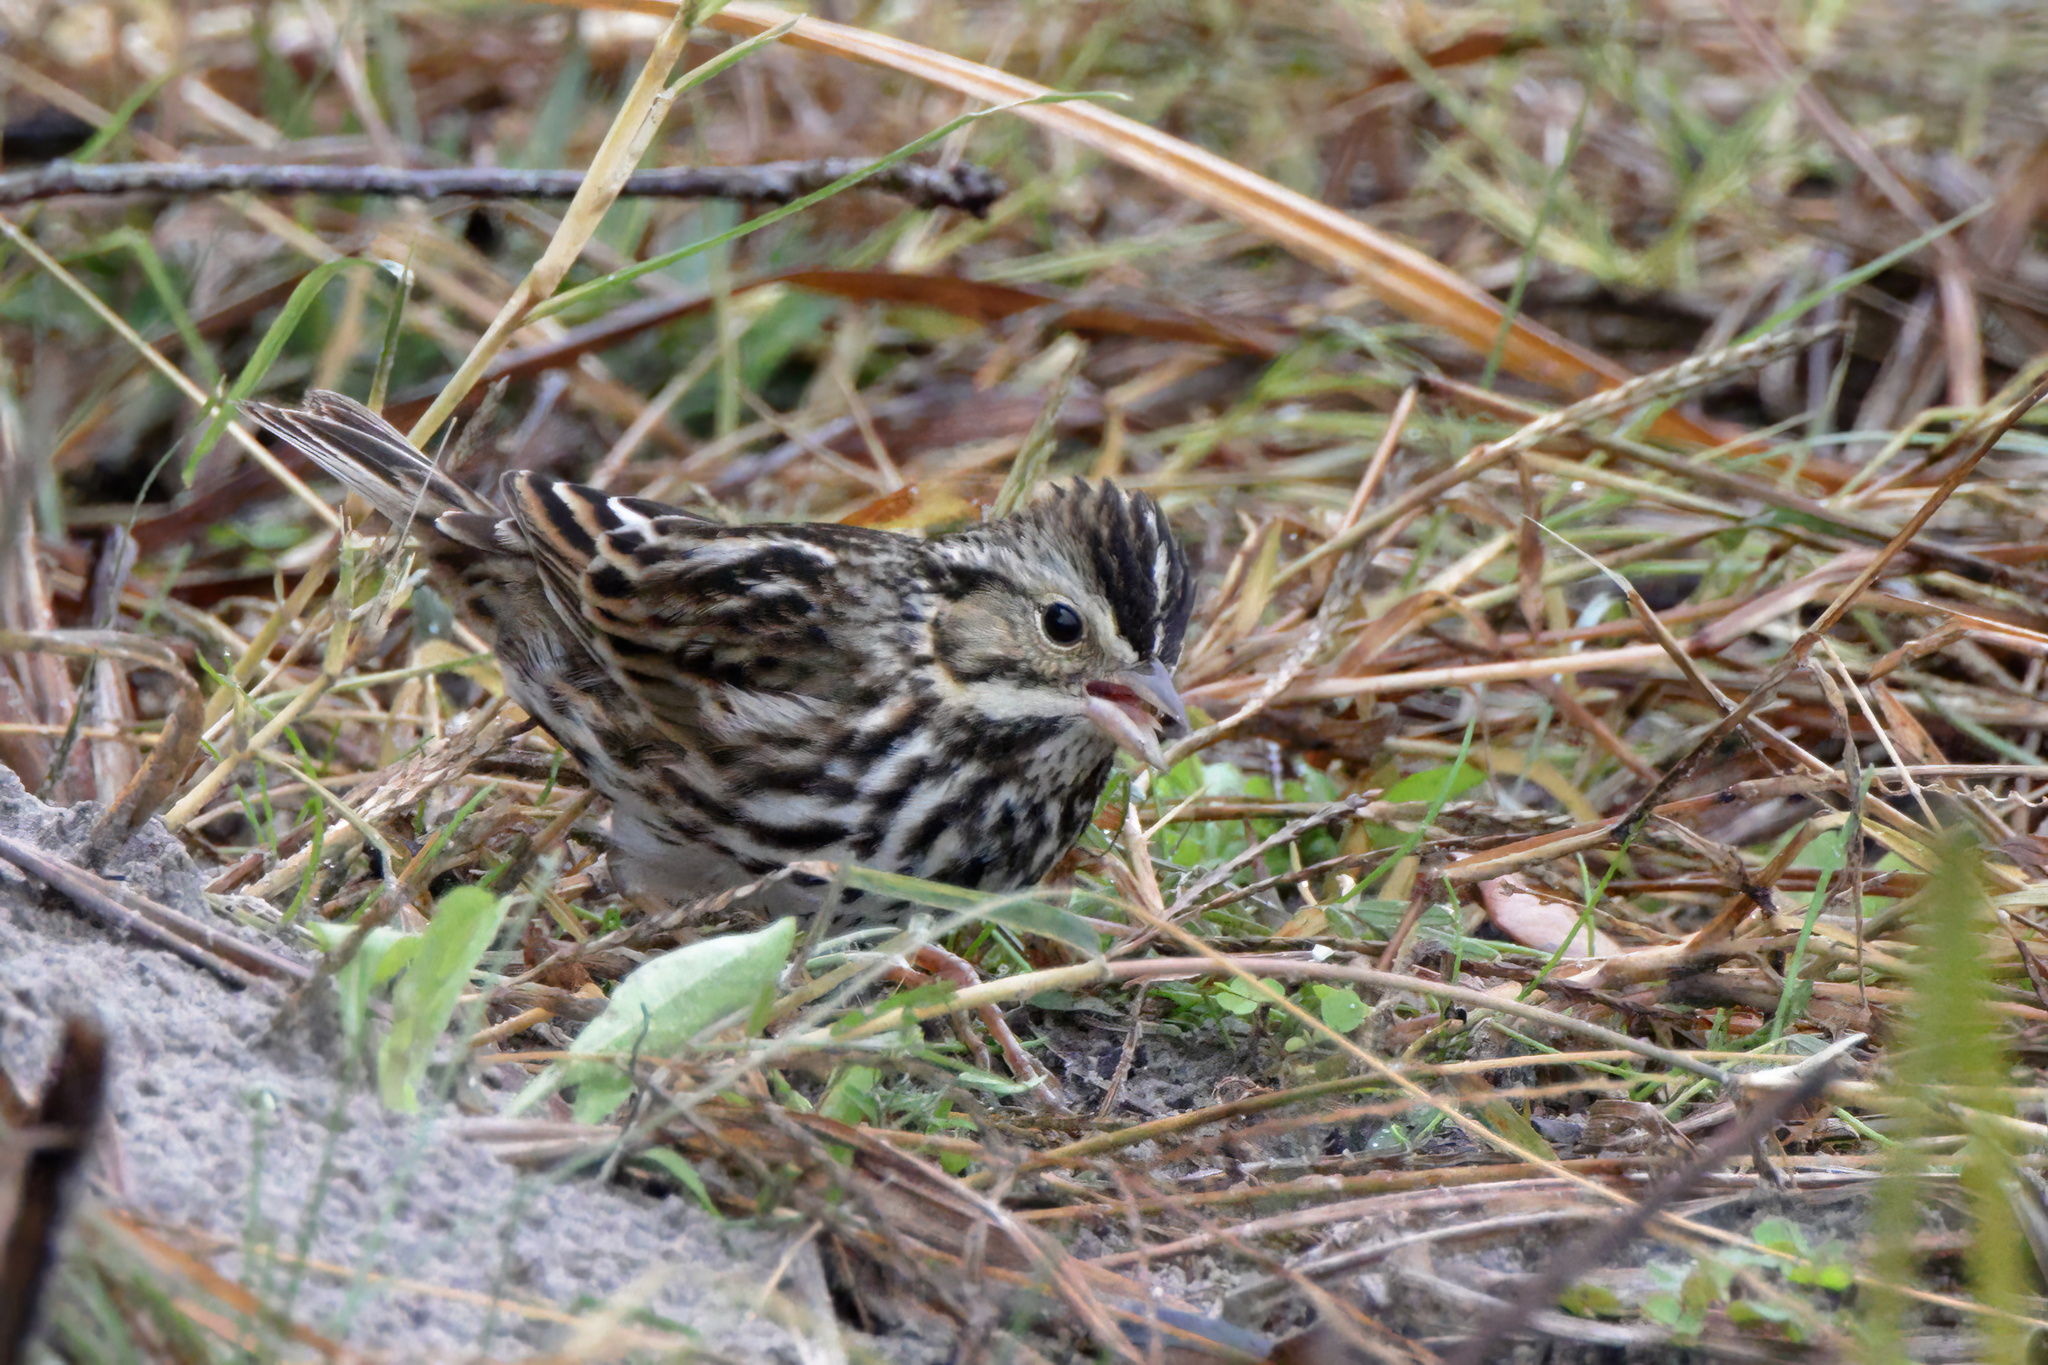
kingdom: Animalia
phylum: Chordata
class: Aves
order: Passeriformes
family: Passerellidae
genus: Passerculus
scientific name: Passerculus sandwichensis
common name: Savannah sparrow
